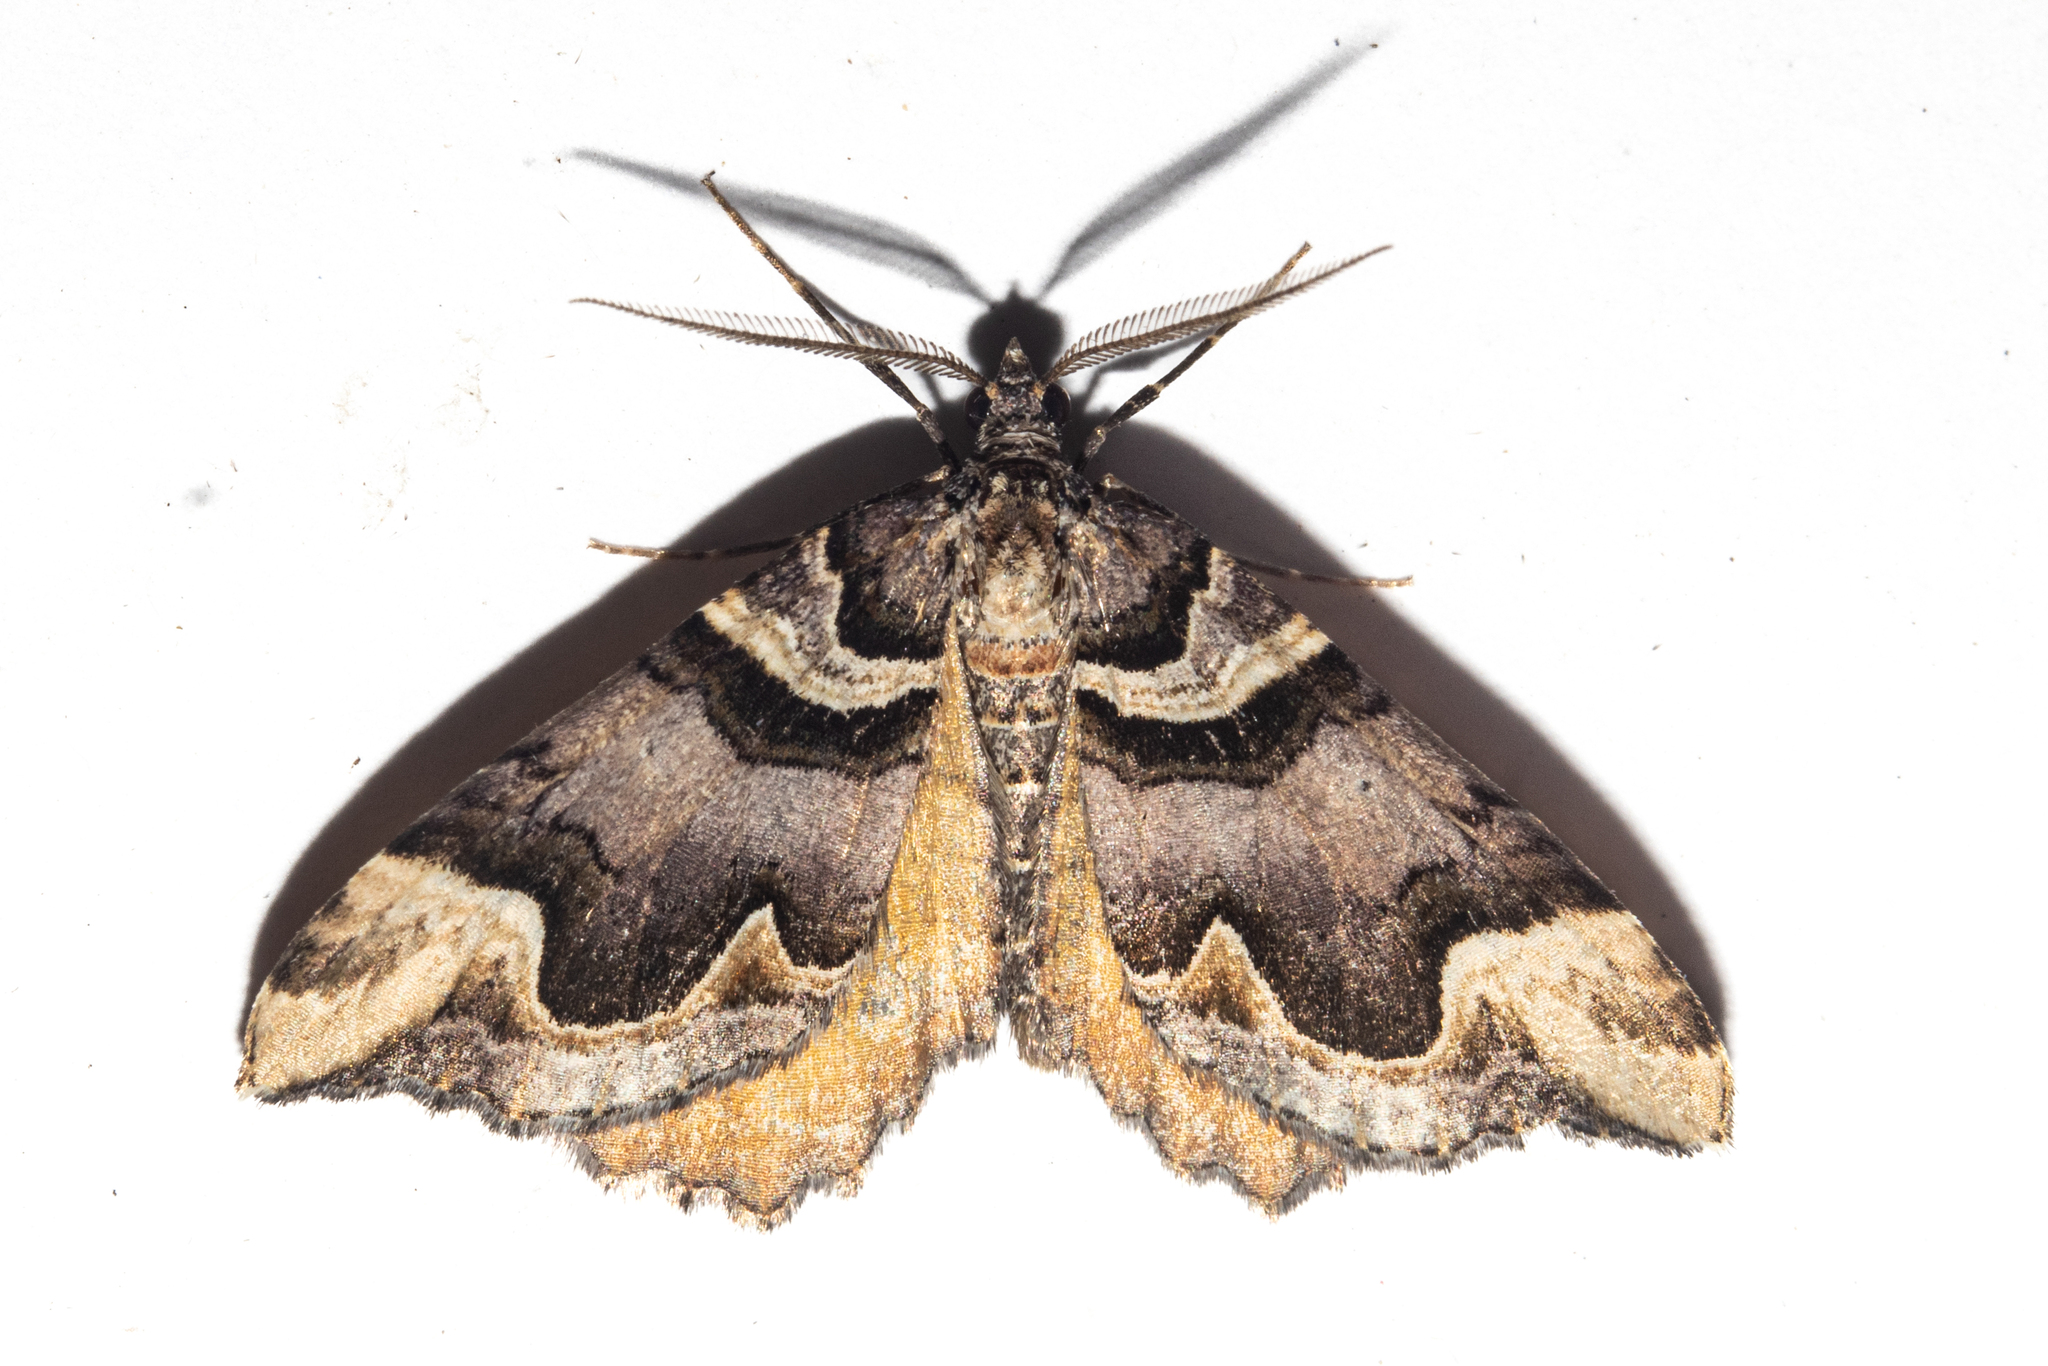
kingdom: Animalia
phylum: Arthropoda
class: Insecta
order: Lepidoptera
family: Geometridae
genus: Asaphodes
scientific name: Asaphodes chlamydota
